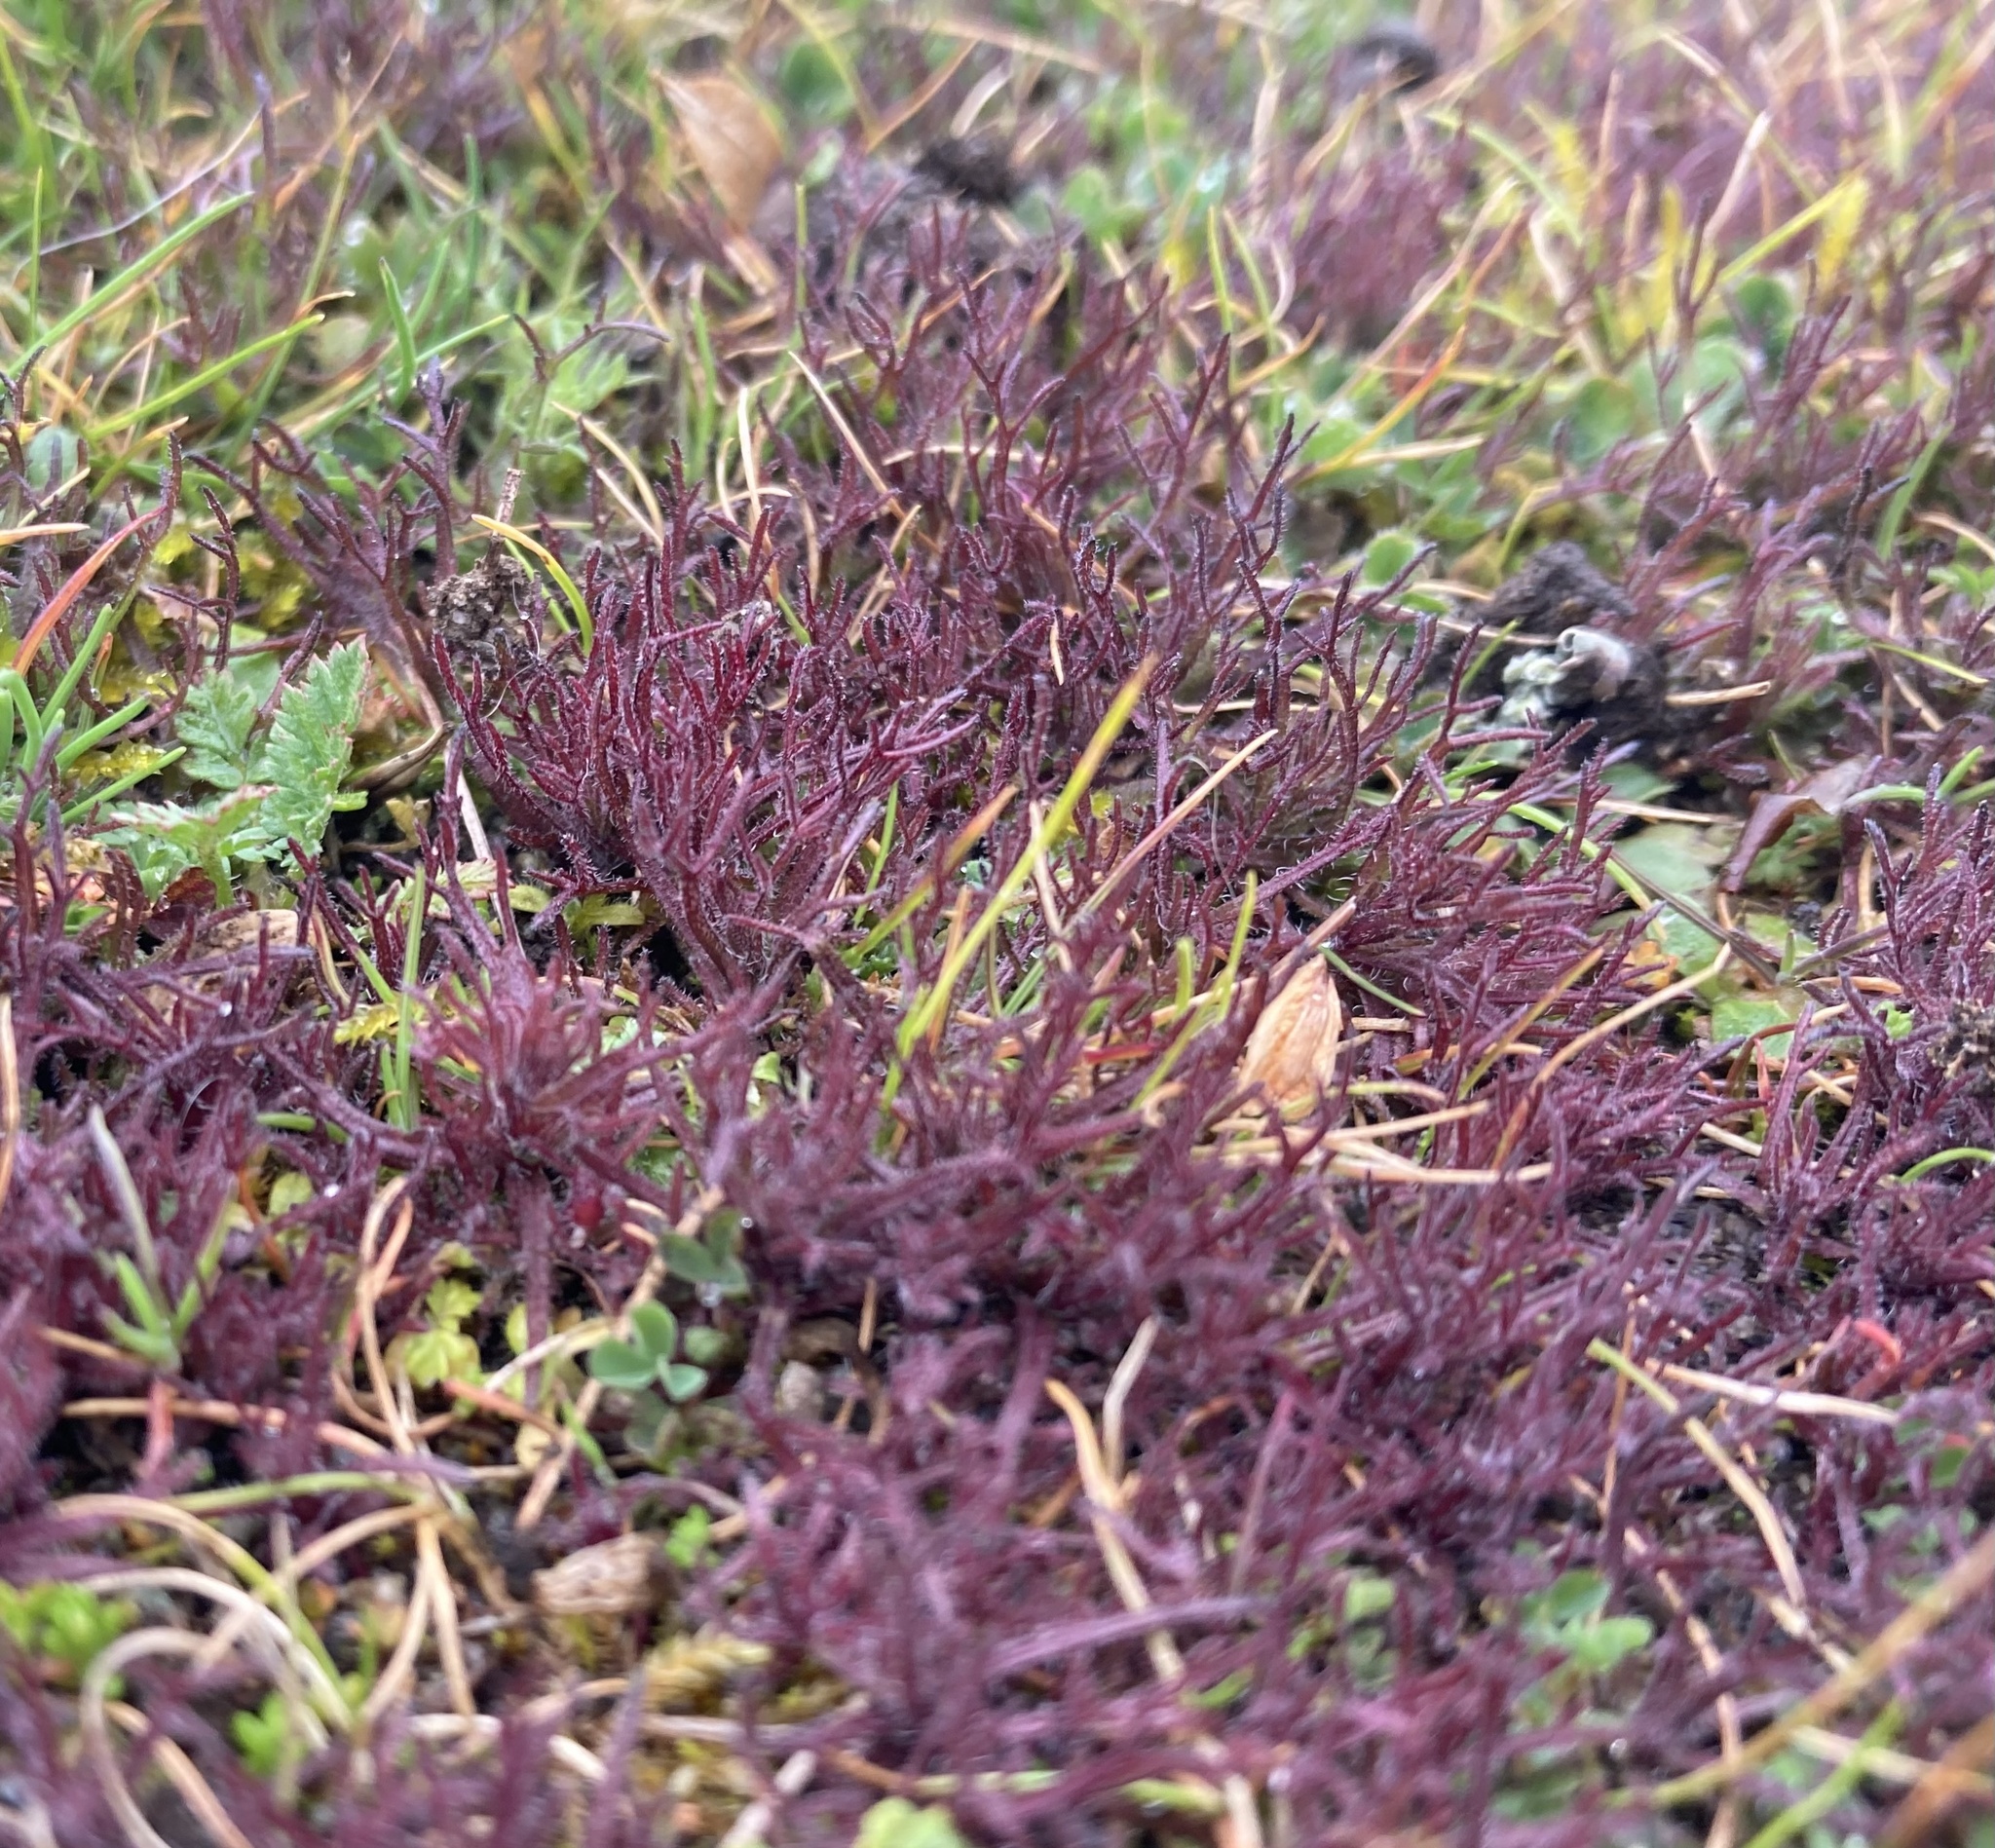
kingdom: Plantae
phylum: Tracheophyta
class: Magnoliopsida
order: Lamiales
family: Orobanchaceae
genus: Triphysaria
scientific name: Triphysaria pusilla
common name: Dwarf false owl-clover
